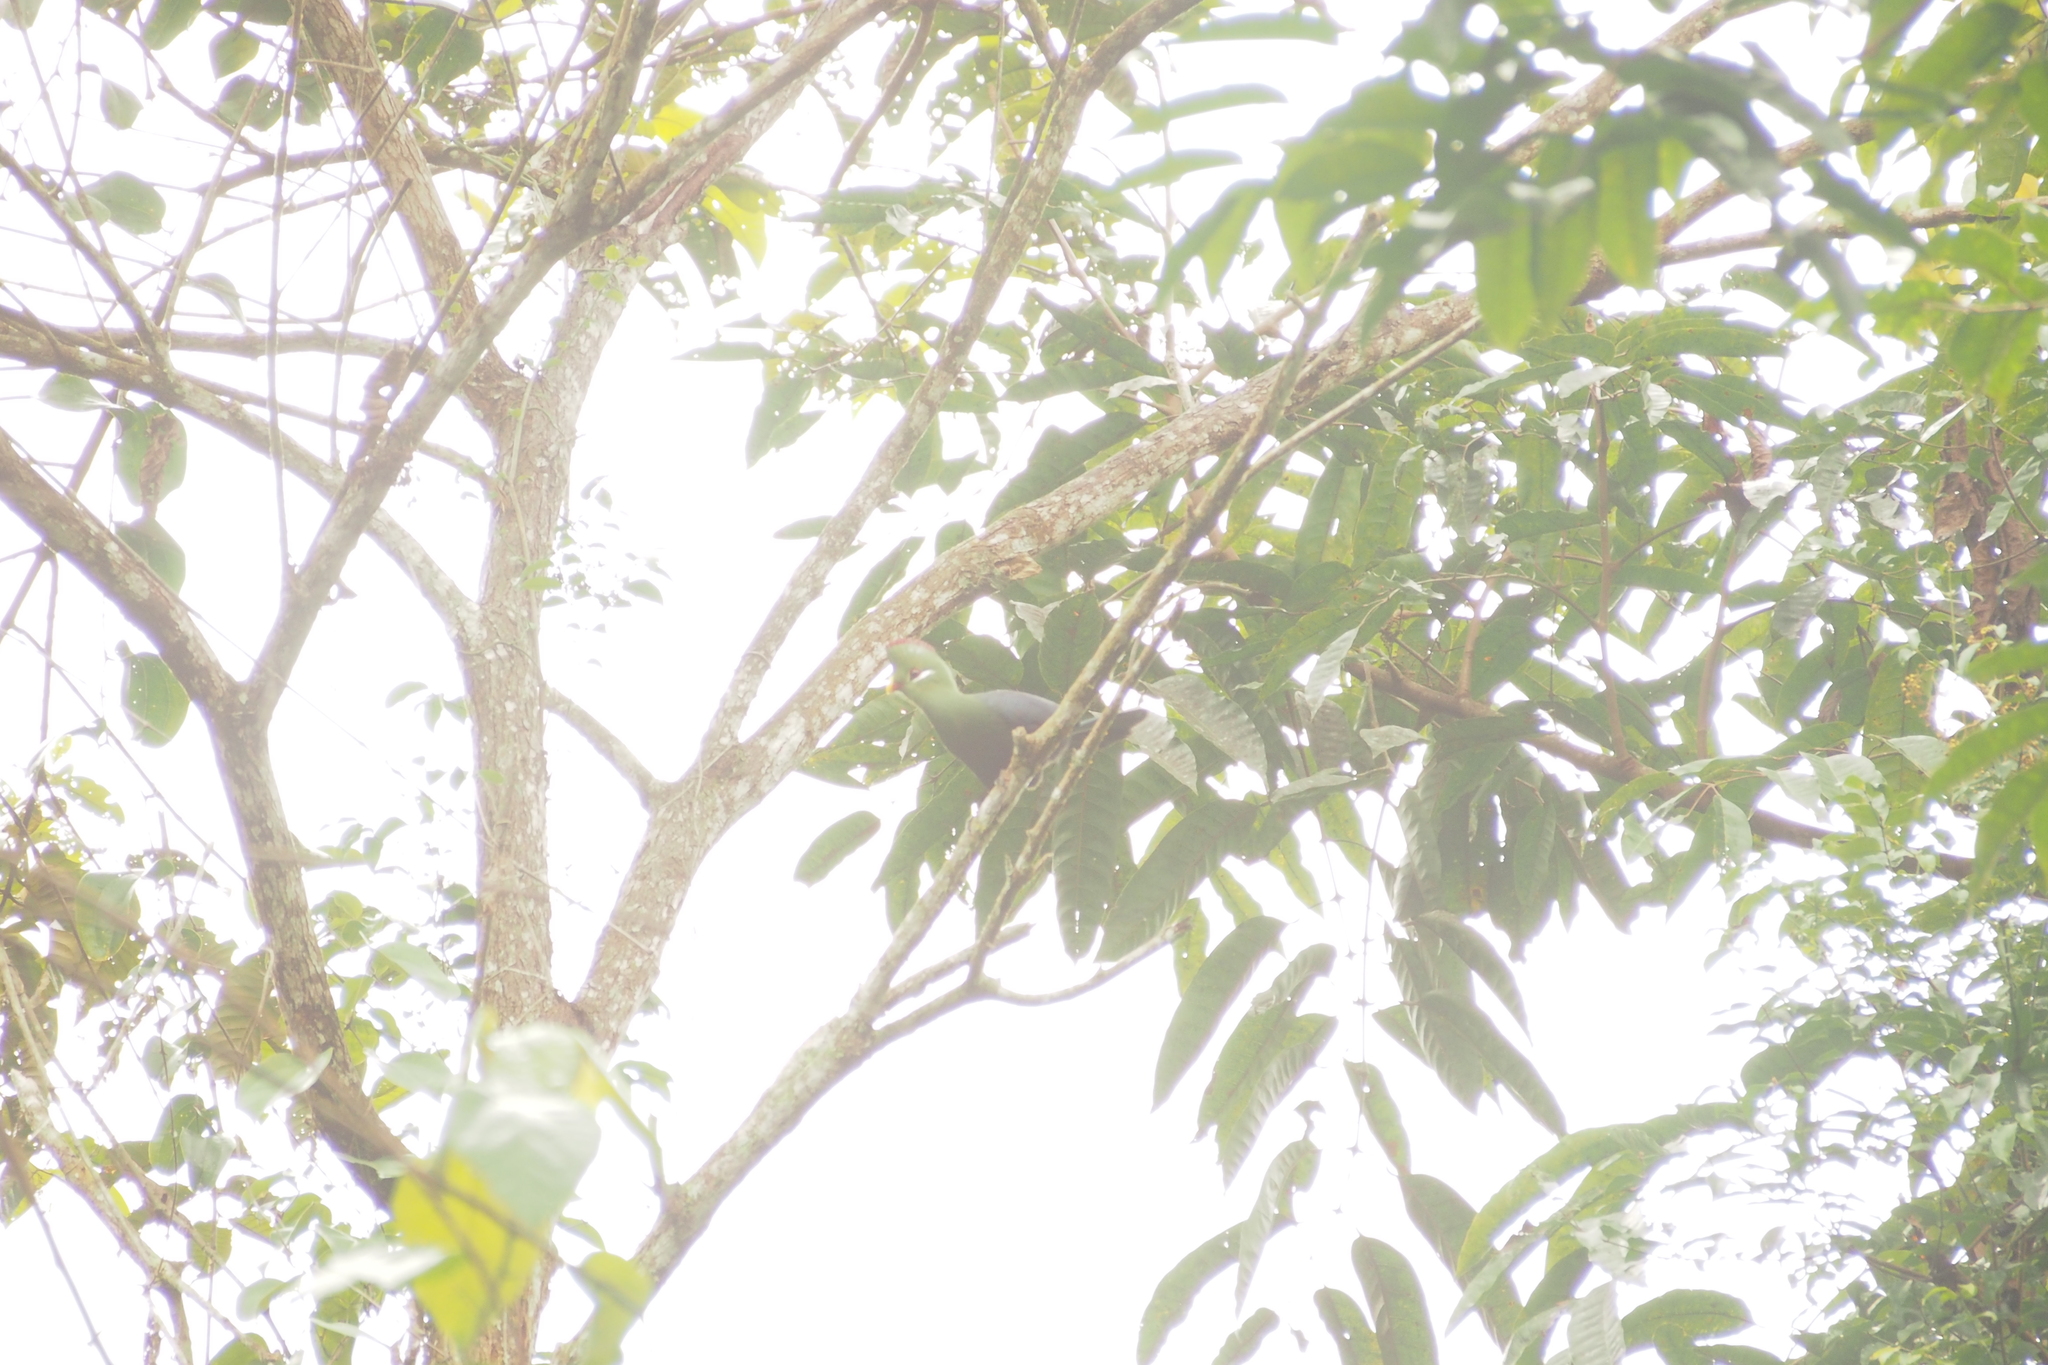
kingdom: Animalia
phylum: Chordata
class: Aves
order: Musophagiformes
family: Musophagidae
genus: Tauraco
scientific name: Tauraco macrorhynchus
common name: Yellow-billed turaco
